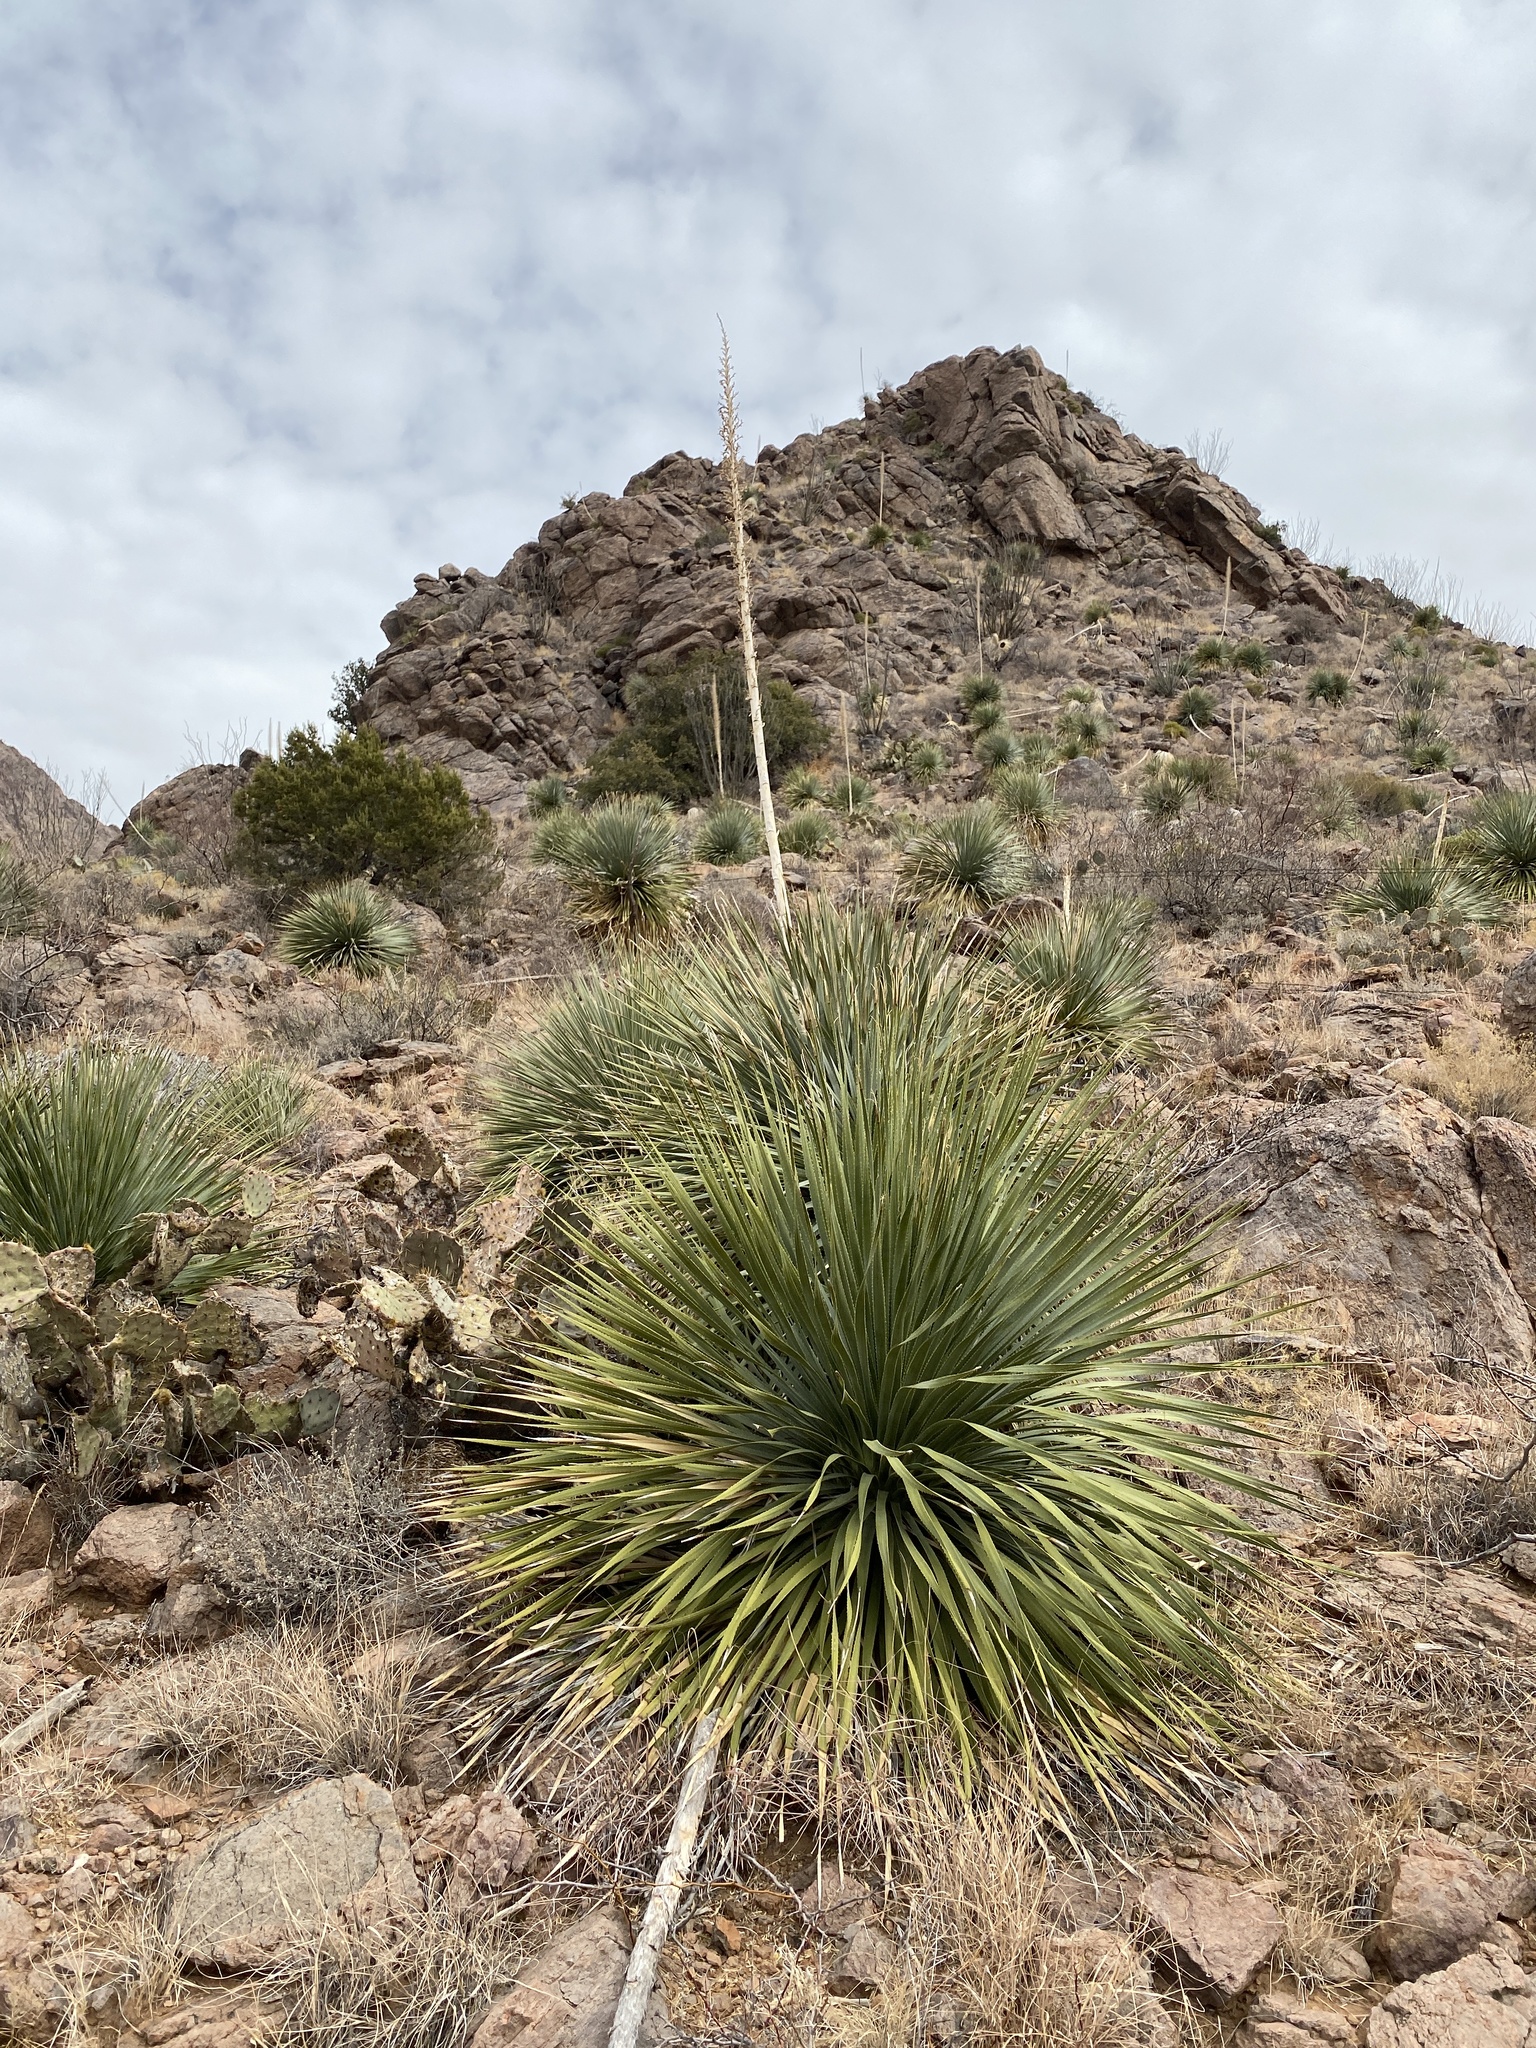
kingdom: Plantae
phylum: Tracheophyta
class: Liliopsida
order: Asparagales
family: Asparagaceae
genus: Dasylirion
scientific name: Dasylirion wheeleri
